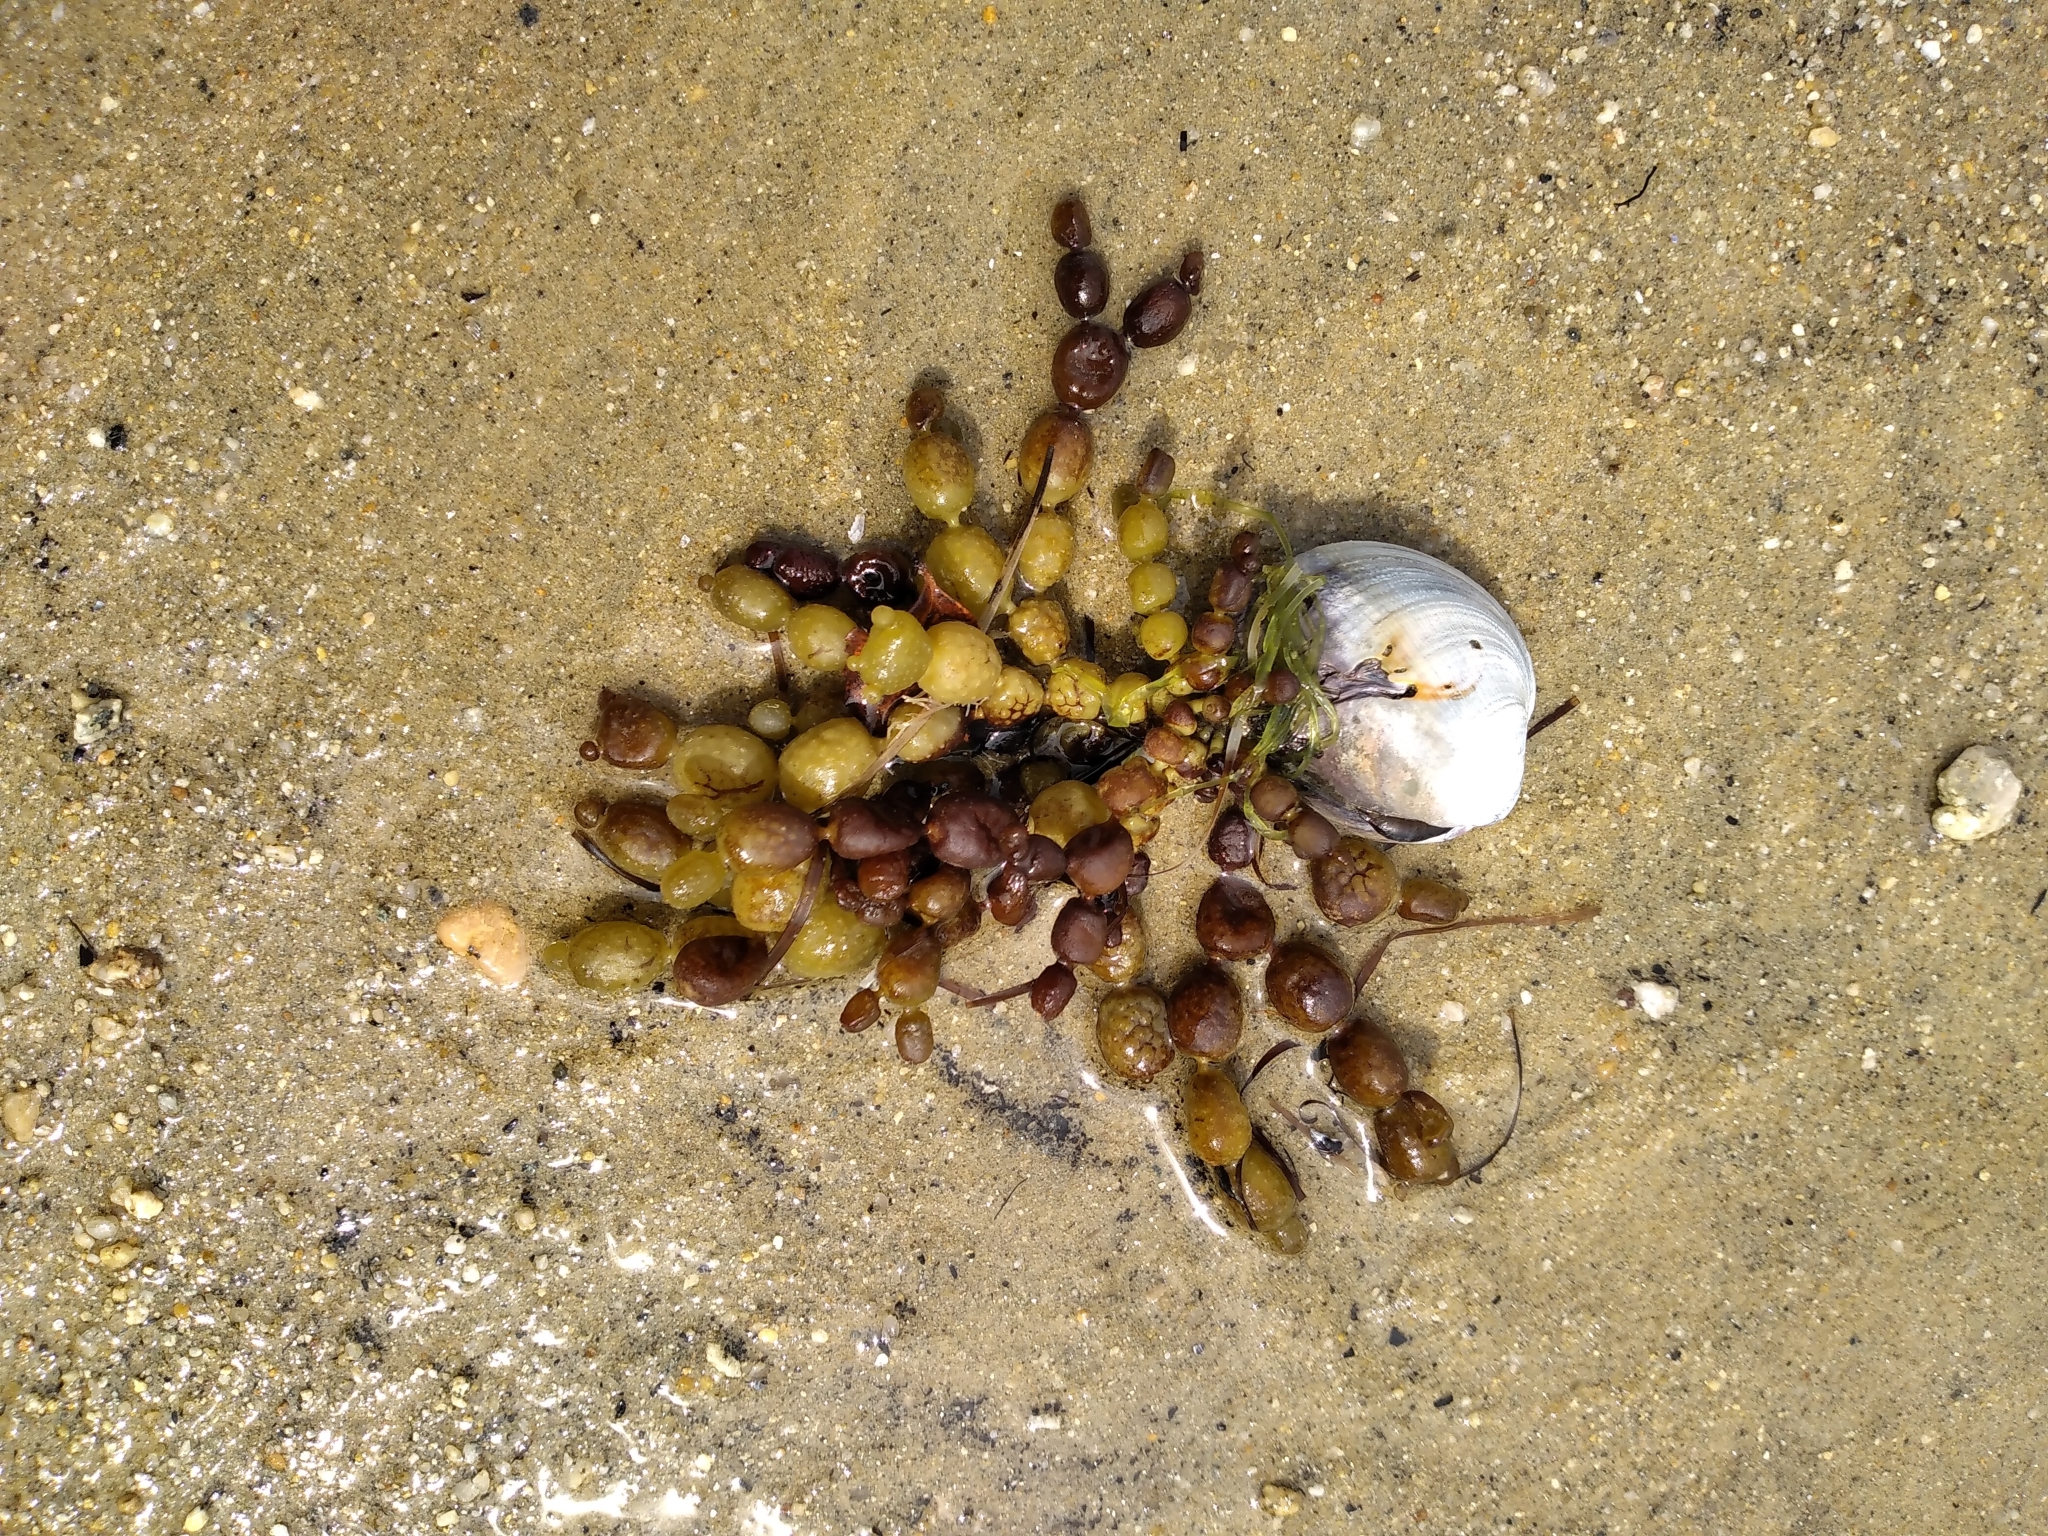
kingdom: Chromista
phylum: Ochrophyta
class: Phaeophyceae
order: Fucales
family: Hormosiraceae
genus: Hormosira
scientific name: Hormosira banksii
